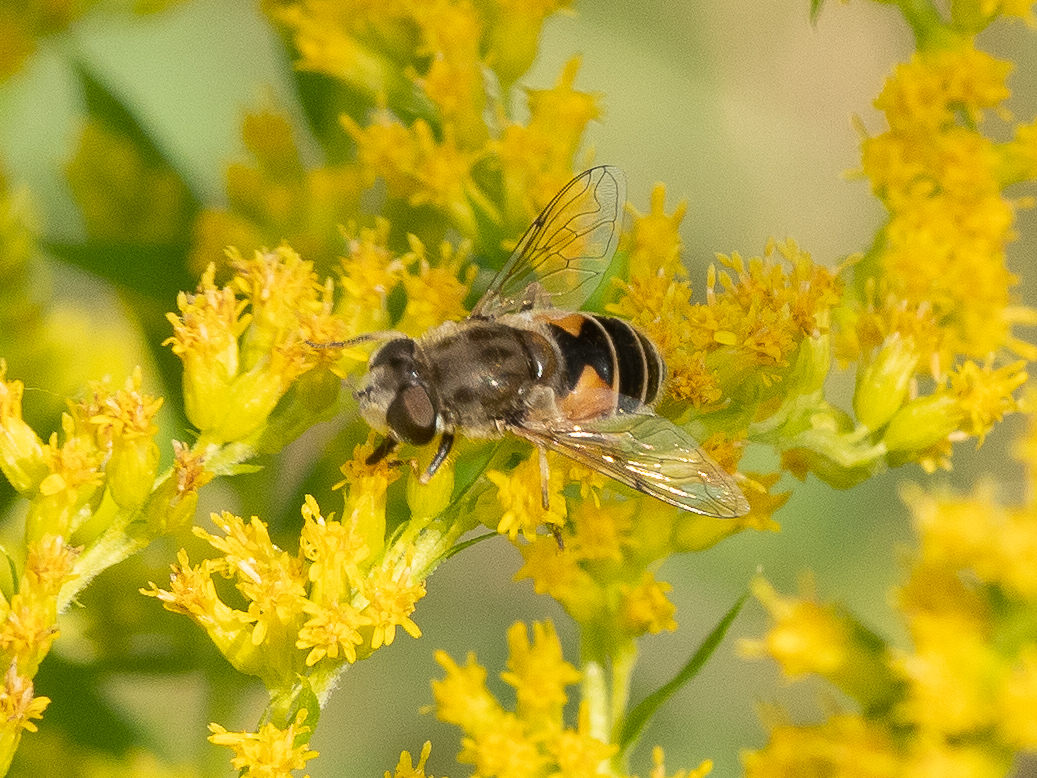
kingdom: Animalia
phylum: Arthropoda
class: Insecta
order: Diptera
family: Syrphidae
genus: Eristalis
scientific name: Eristalis arbustorum
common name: Hover fly
